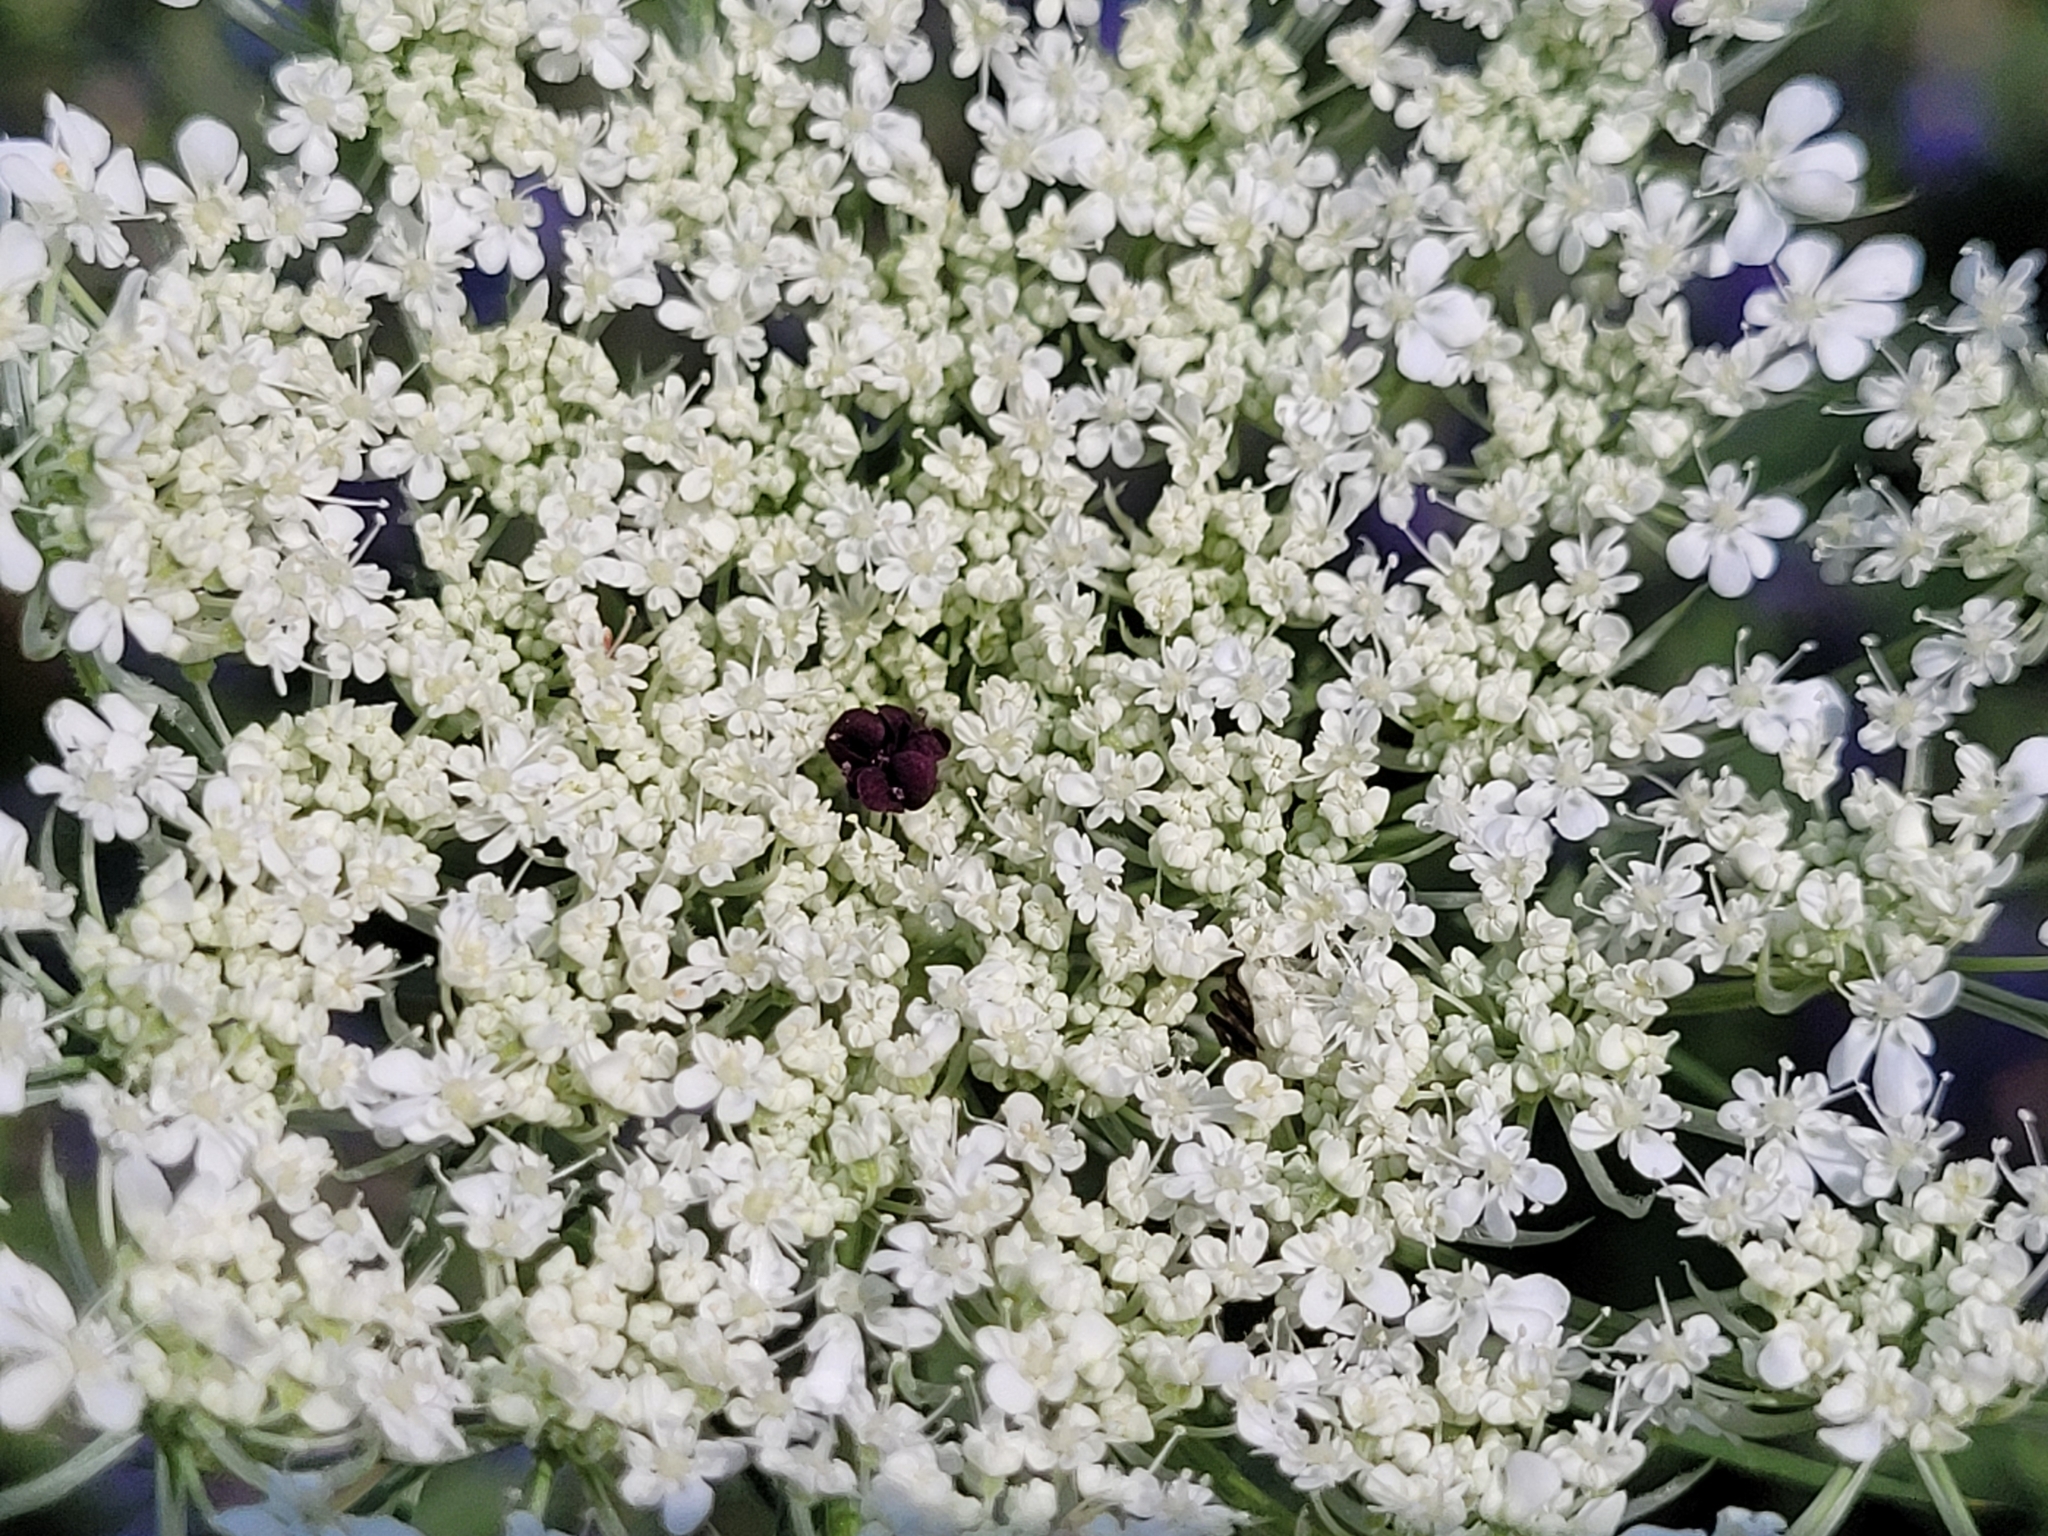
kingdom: Plantae
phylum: Tracheophyta
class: Magnoliopsida
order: Apiales
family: Apiaceae
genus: Daucus
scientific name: Daucus carota
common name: Wild carrot
